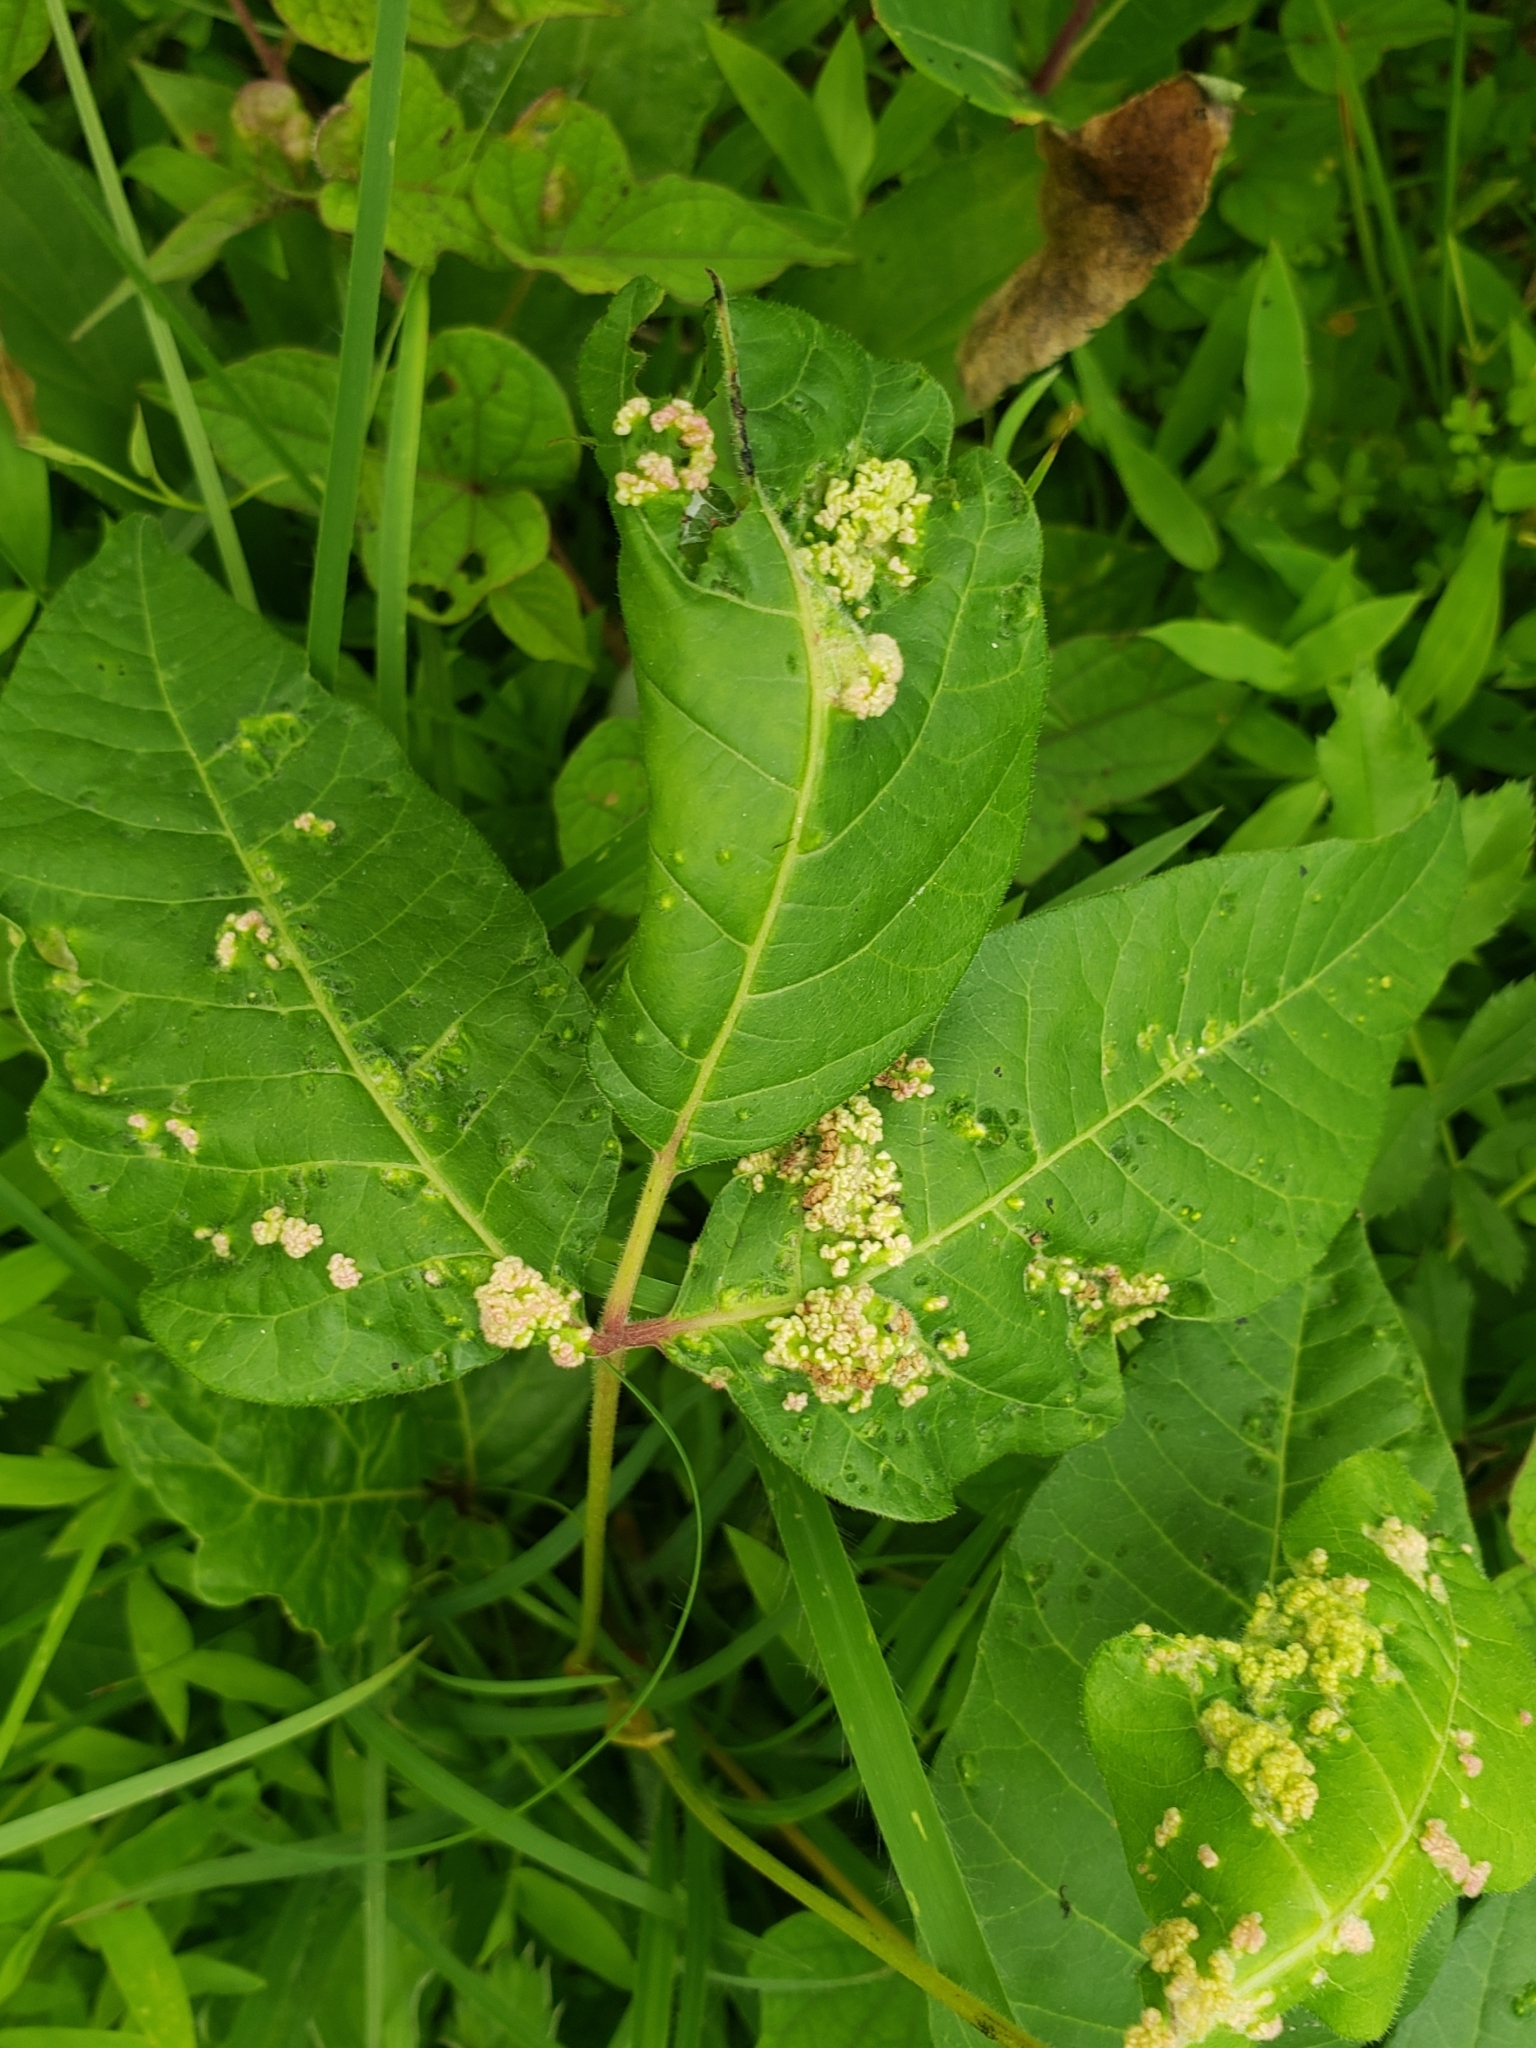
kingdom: Animalia
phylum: Arthropoda
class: Arachnida
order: Trombidiformes
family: Eriophyidae
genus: Aculops
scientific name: Aculops
